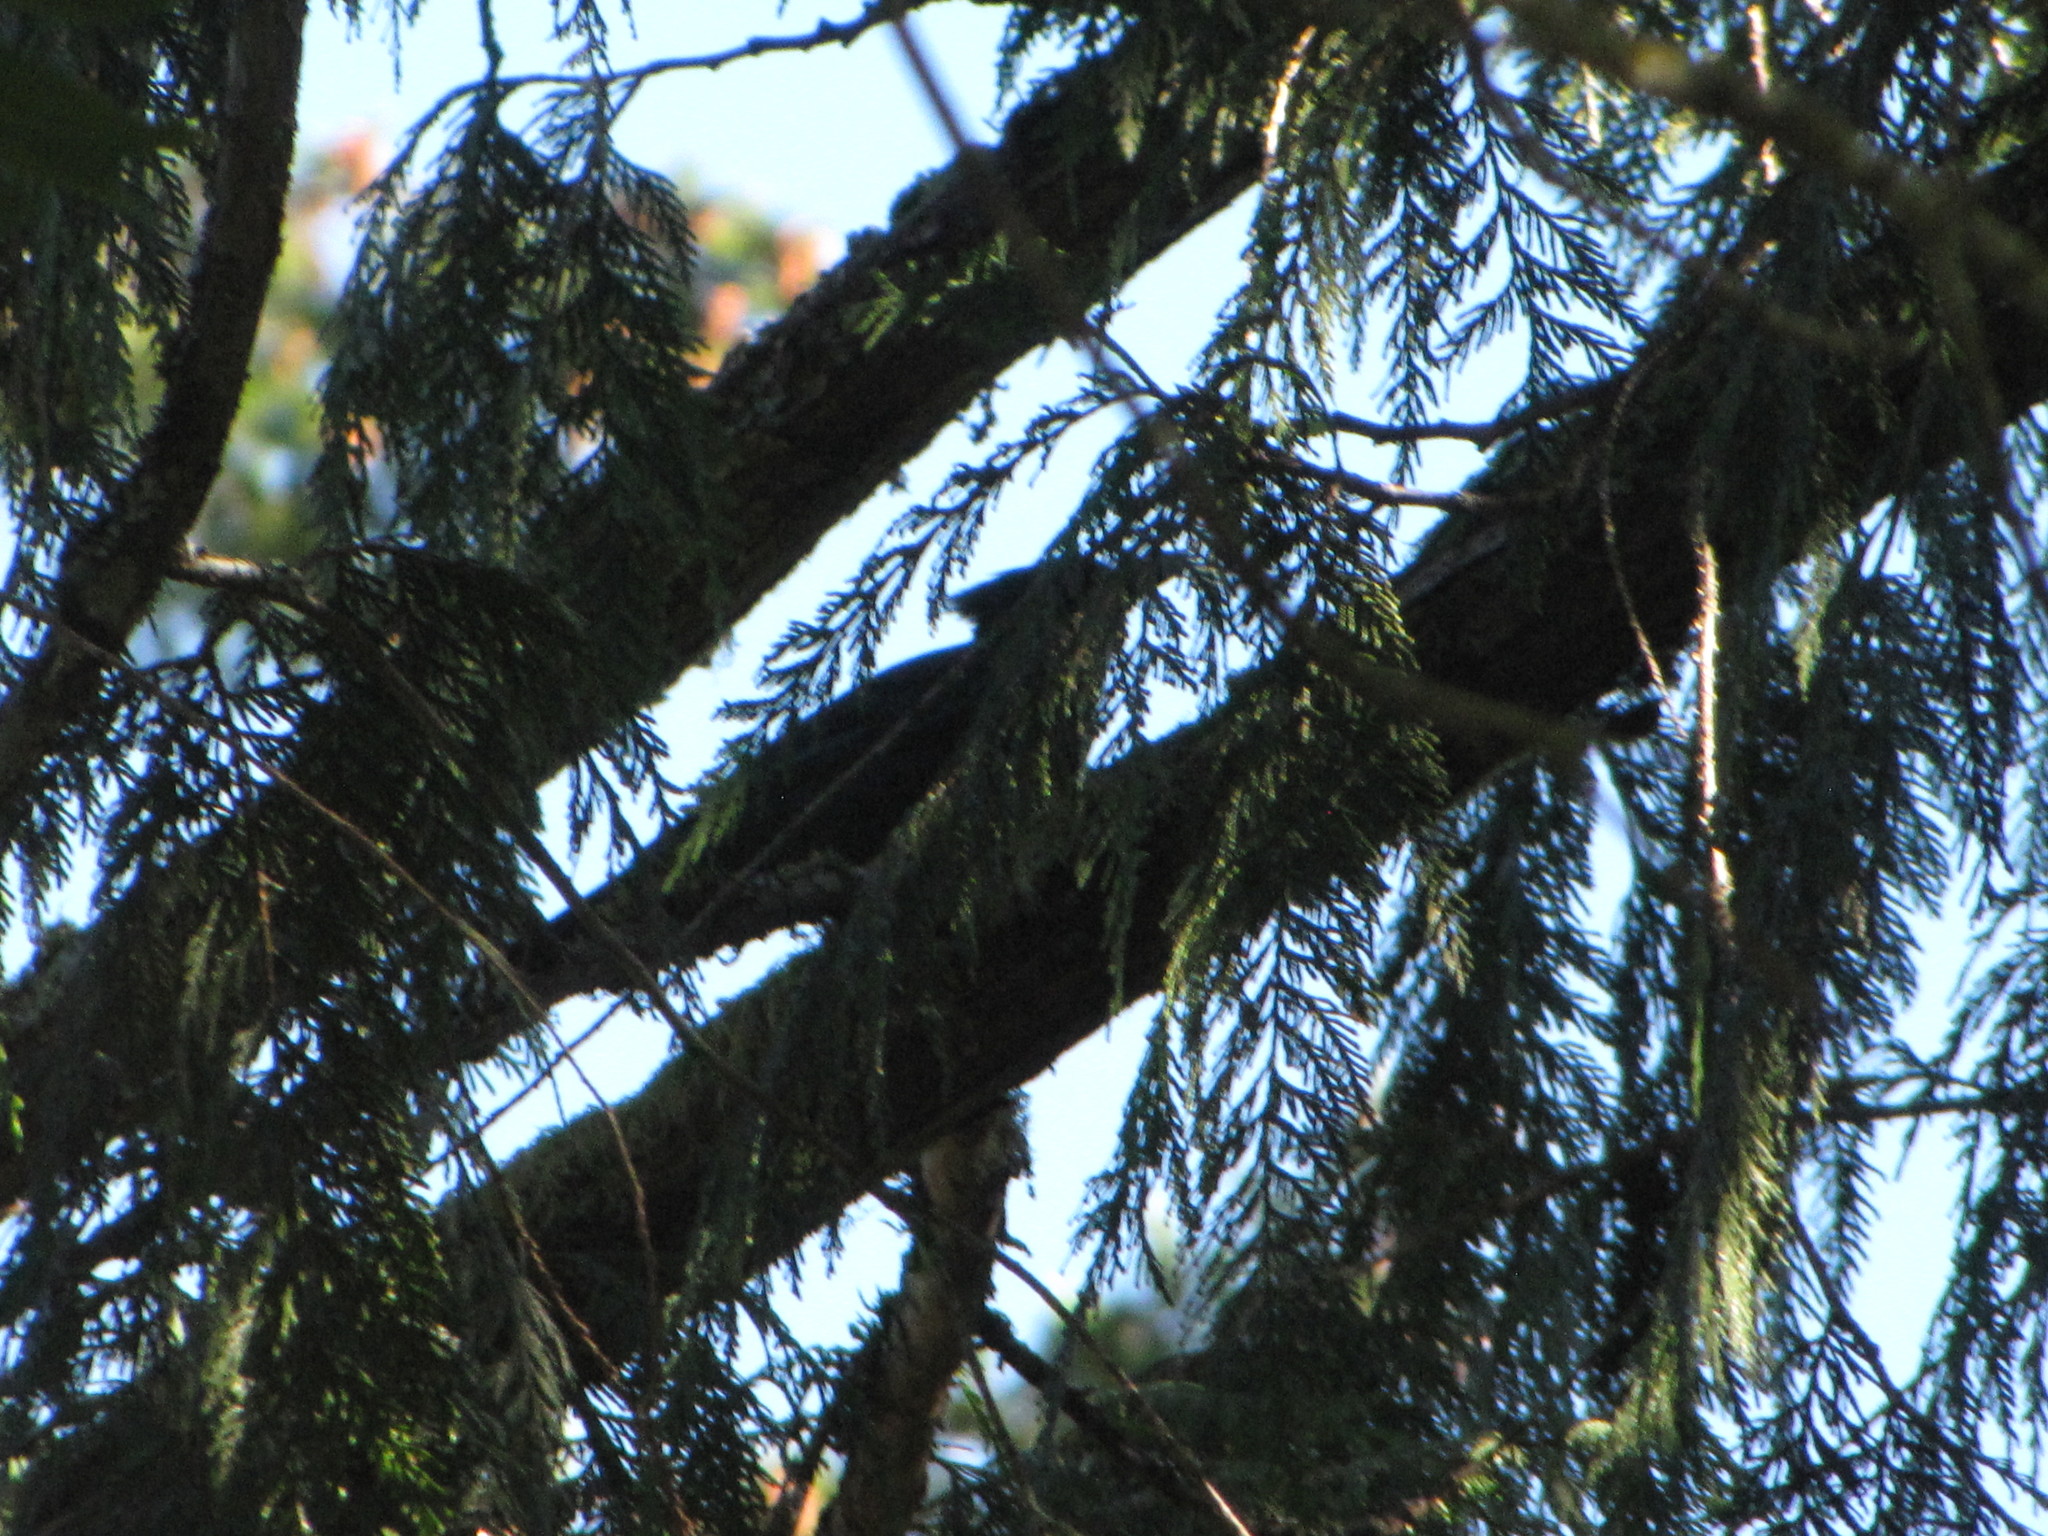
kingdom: Animalia
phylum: Chordata
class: Aves
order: Passeriformes
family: Corvidae
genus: Cyanocitta
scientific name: Cyanocitta stelleri
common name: Steller's jay
